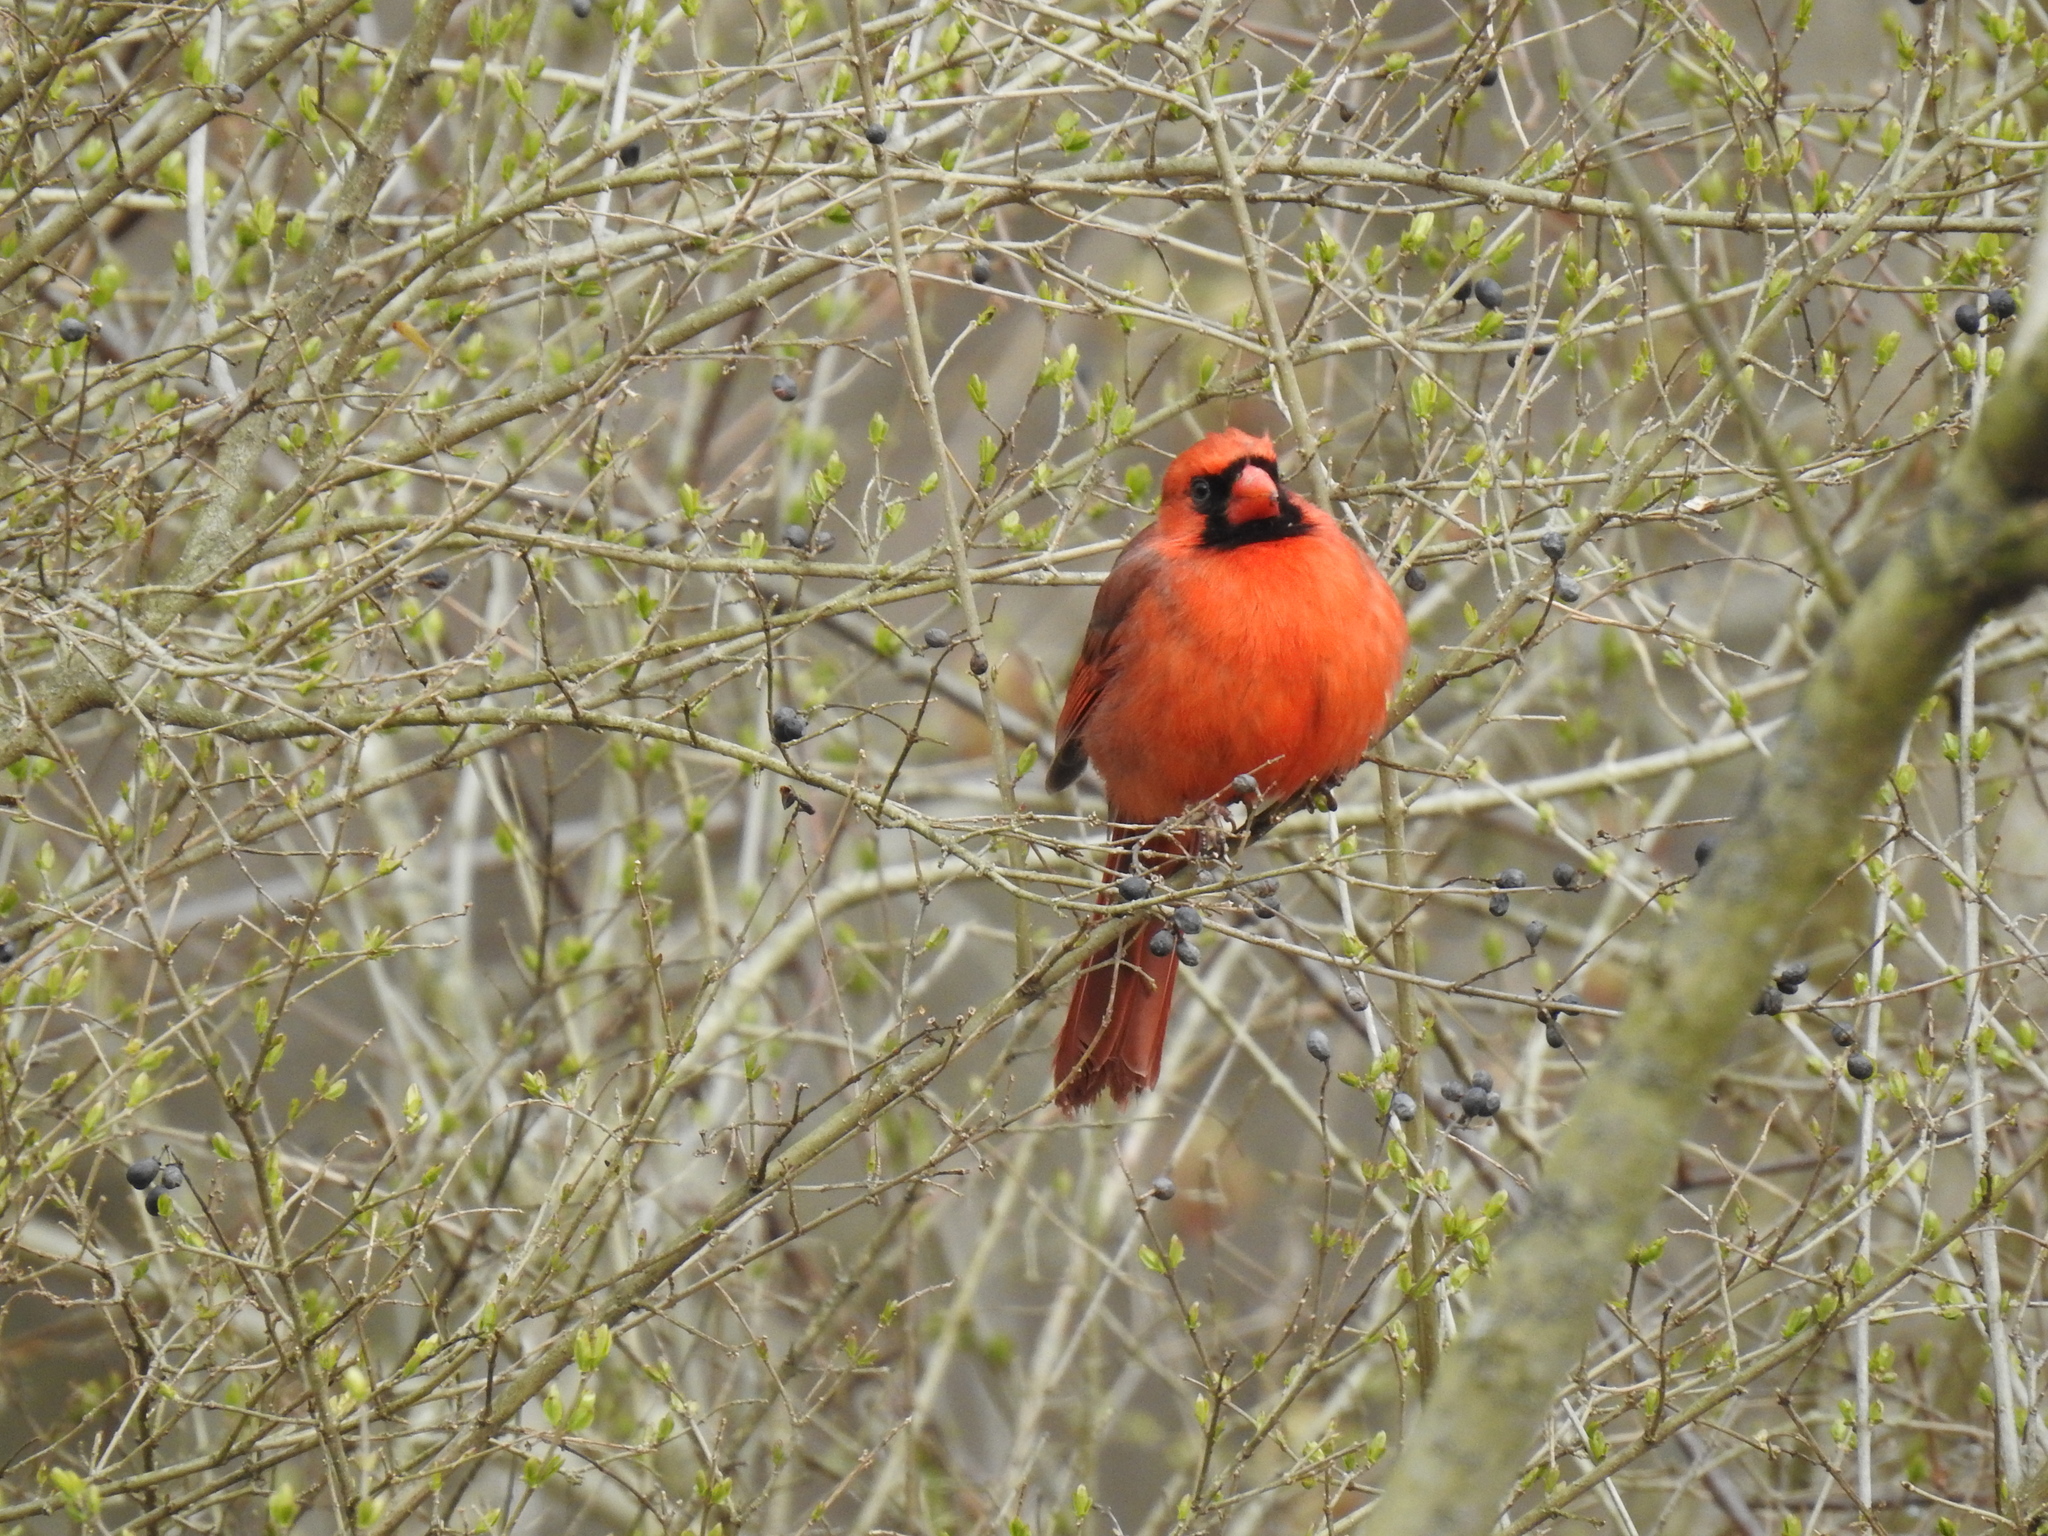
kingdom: Animalia
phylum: Chordata
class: Aves
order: Passeriformes
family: Cardinalidae
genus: Cardinalis
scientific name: Cardinalis cardinalis
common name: Northern cardinal
